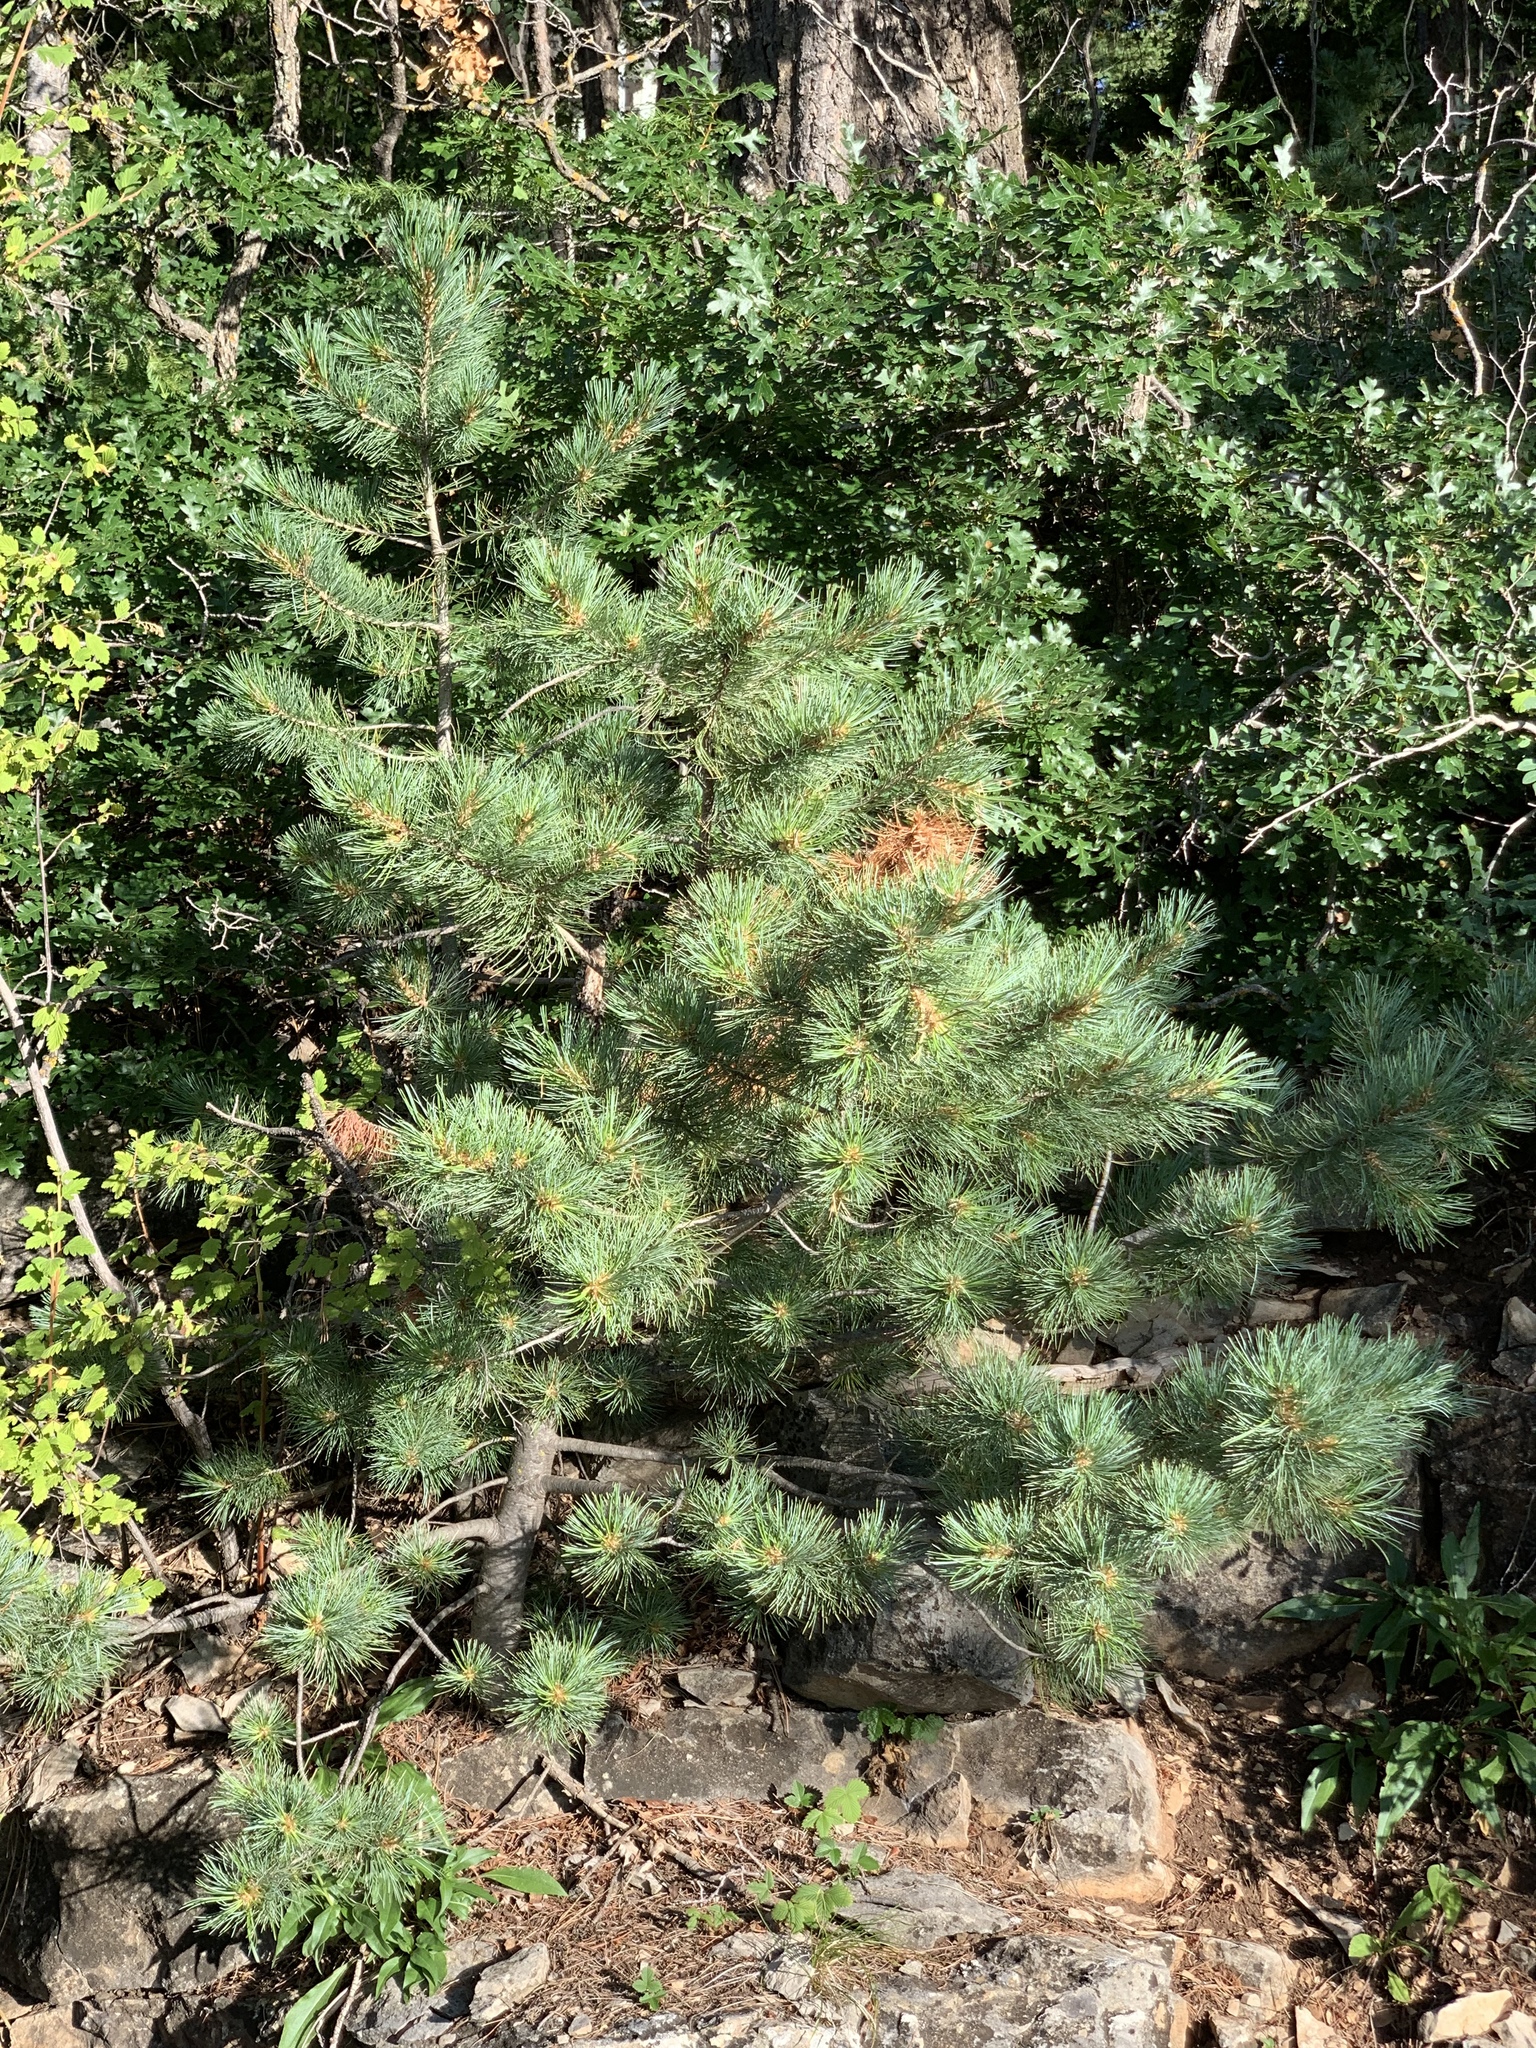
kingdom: Plantae
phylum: Tracheophyta
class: Pinopsida
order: Pinales
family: Pinaceae
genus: Pinus
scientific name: Pinus strobiformis
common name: Southwestern white pine
